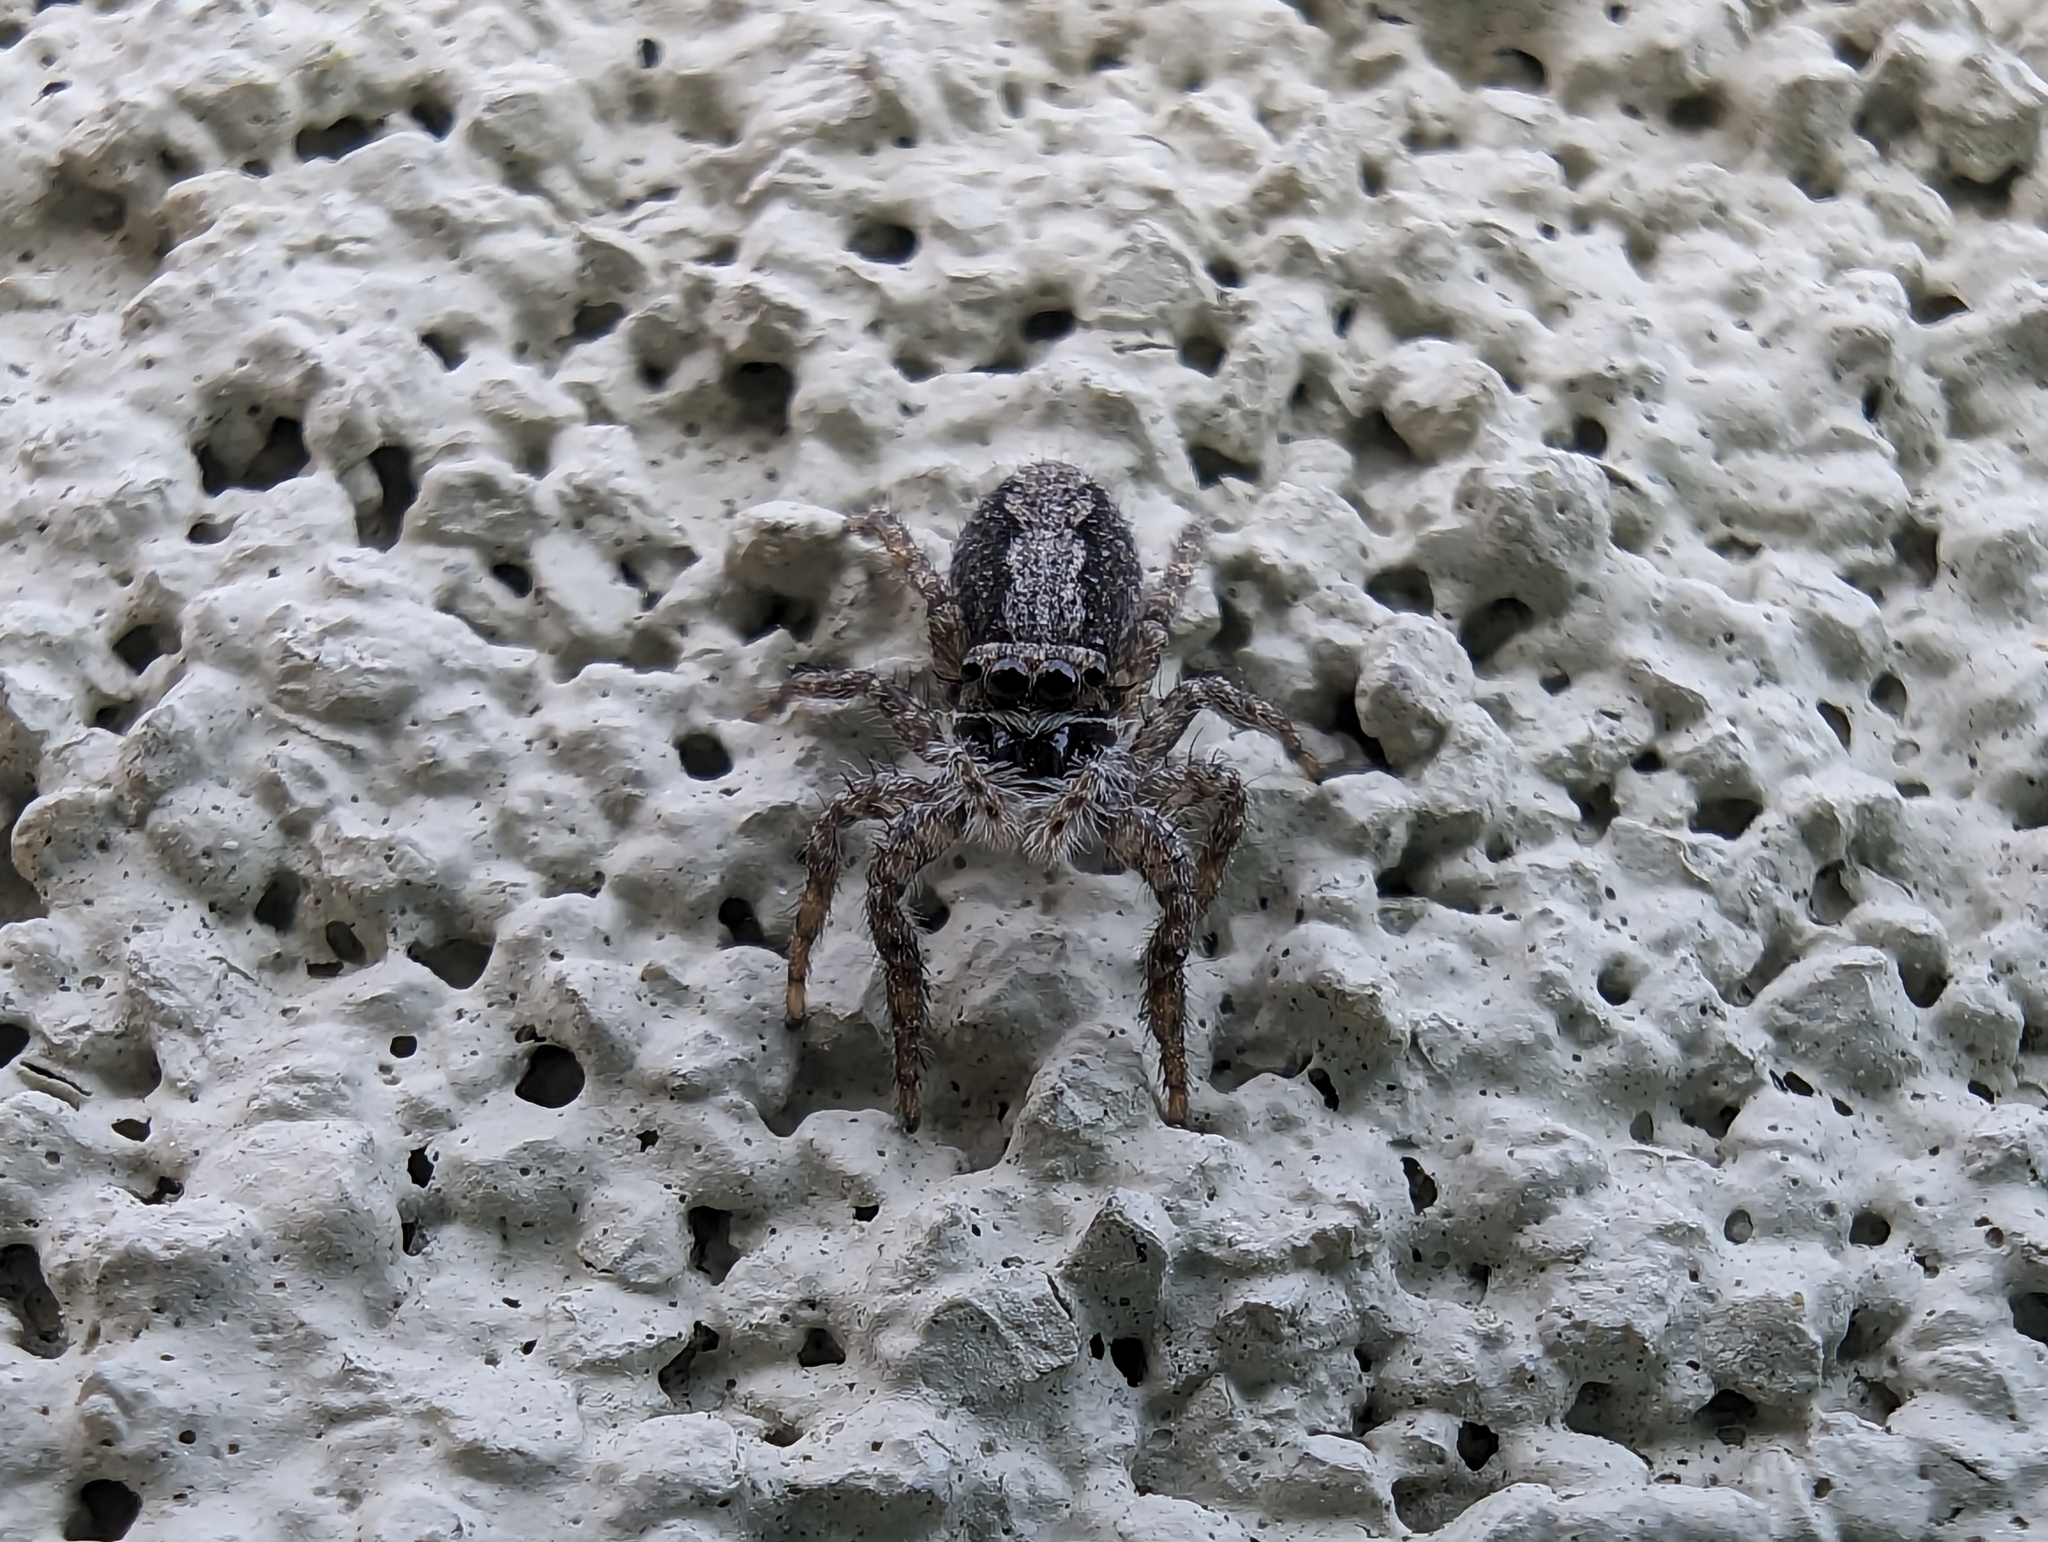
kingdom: Animalia
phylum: Arthropoda
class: Arachnida
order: Araneae
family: Salticidae
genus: Platycryptus
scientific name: Platycryptus californicus
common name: Jumping spiders
